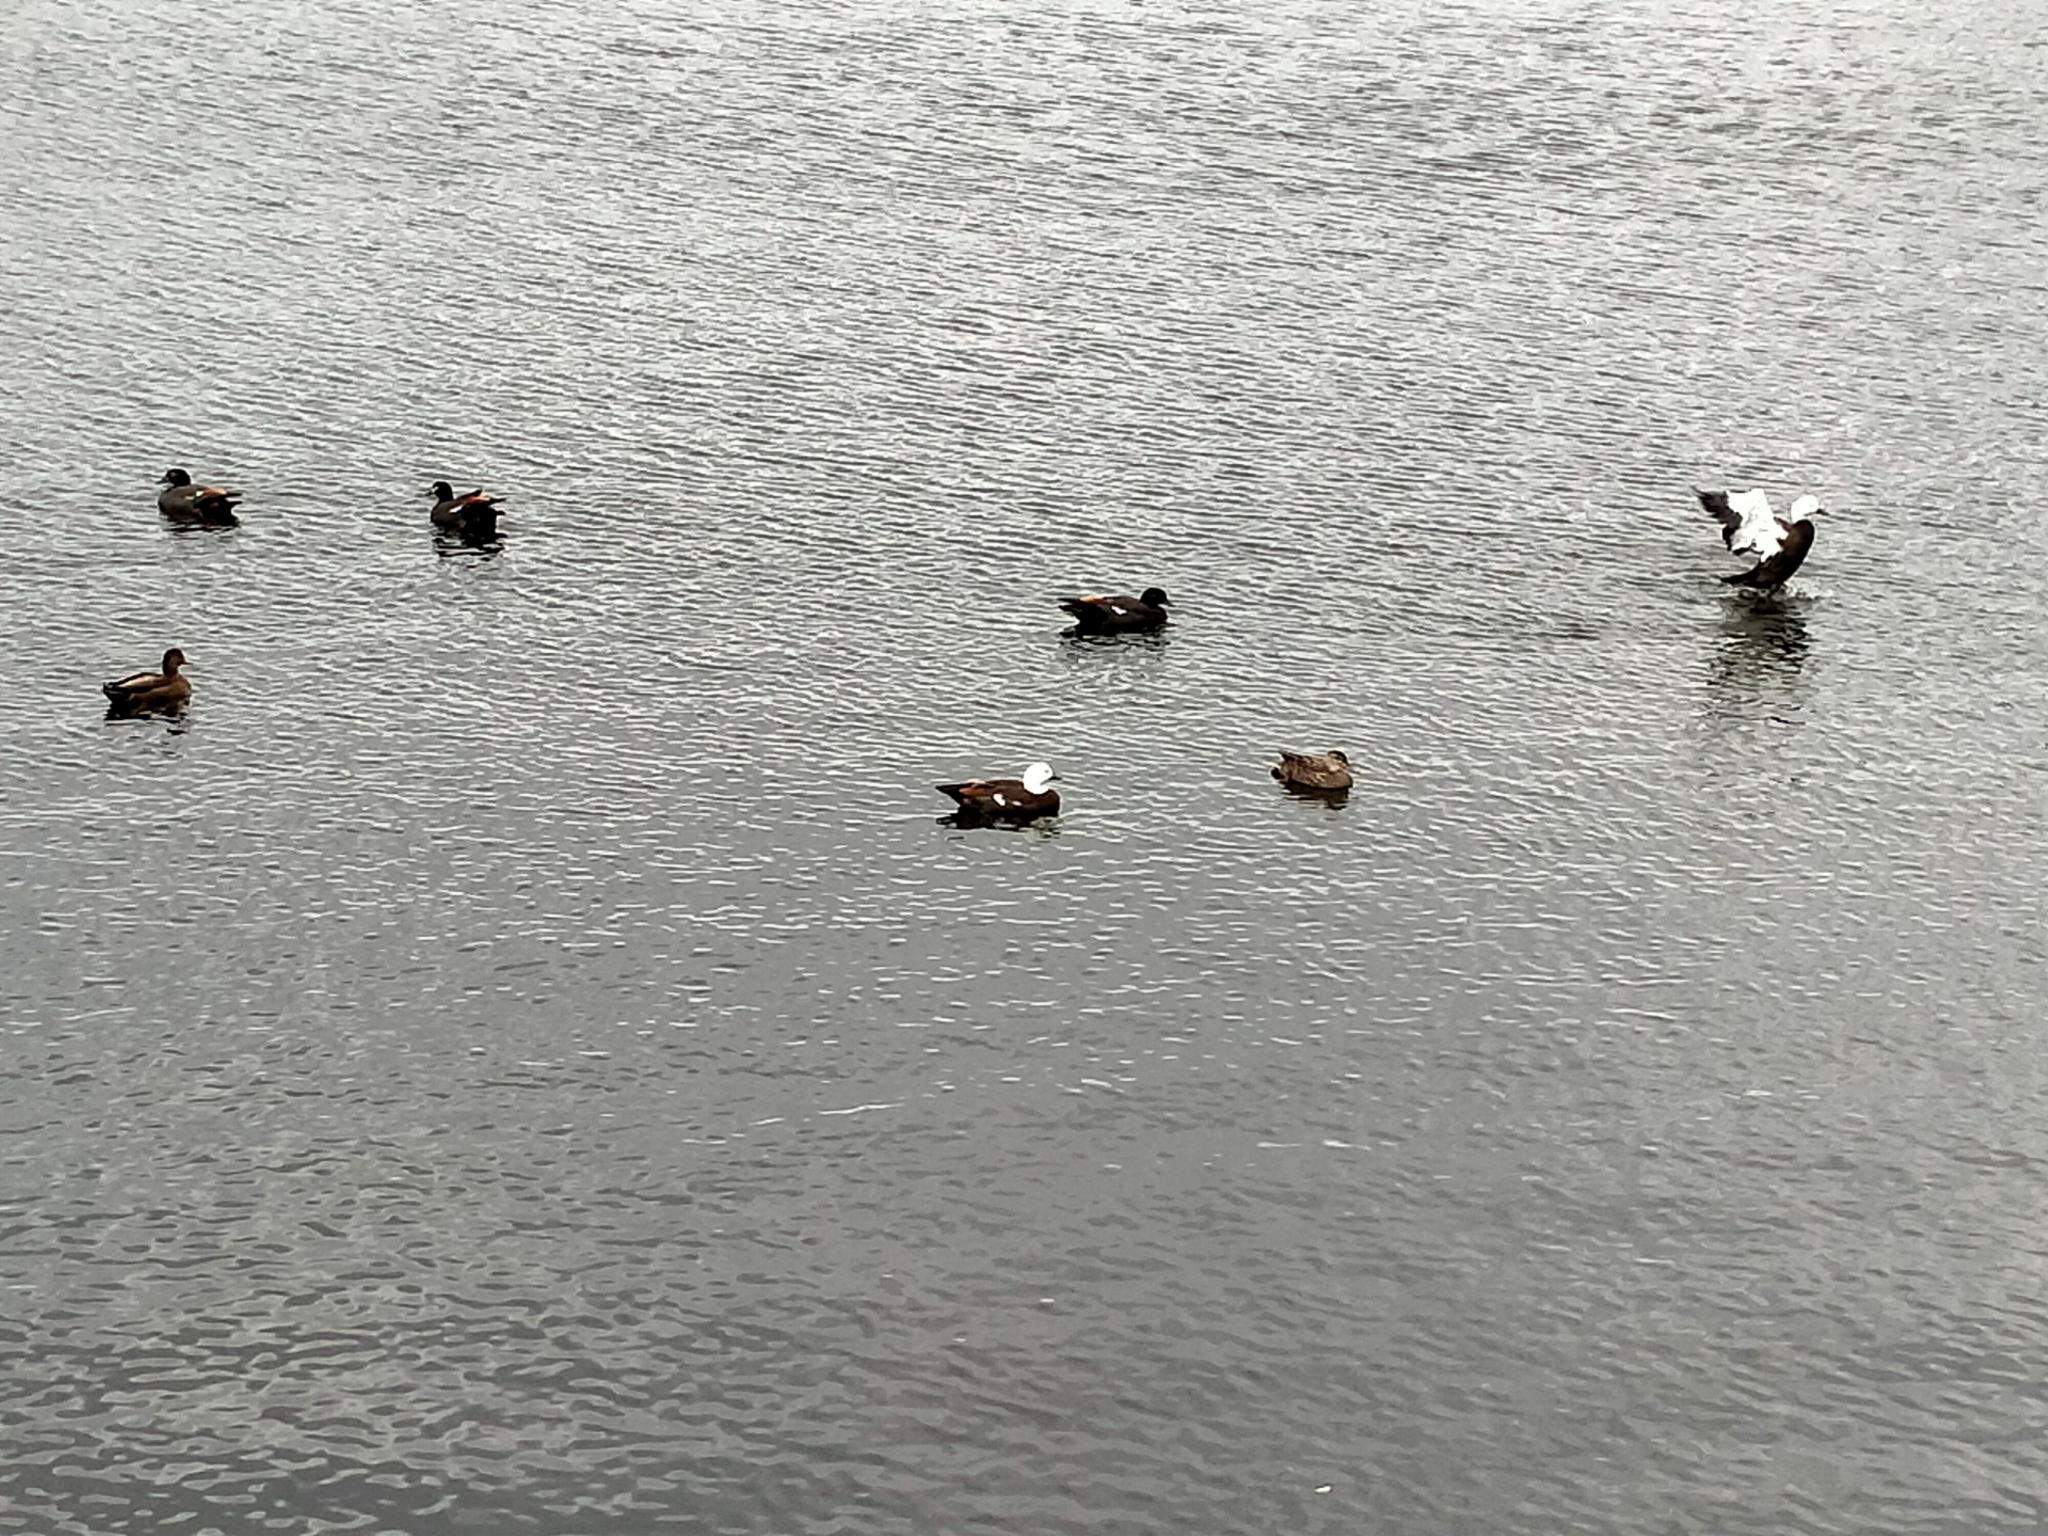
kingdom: Animalia
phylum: Chordata
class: Aves
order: Anseriformes
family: Anatidae
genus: Tadorna
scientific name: Tadorna variegata
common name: Paradise shelduck
